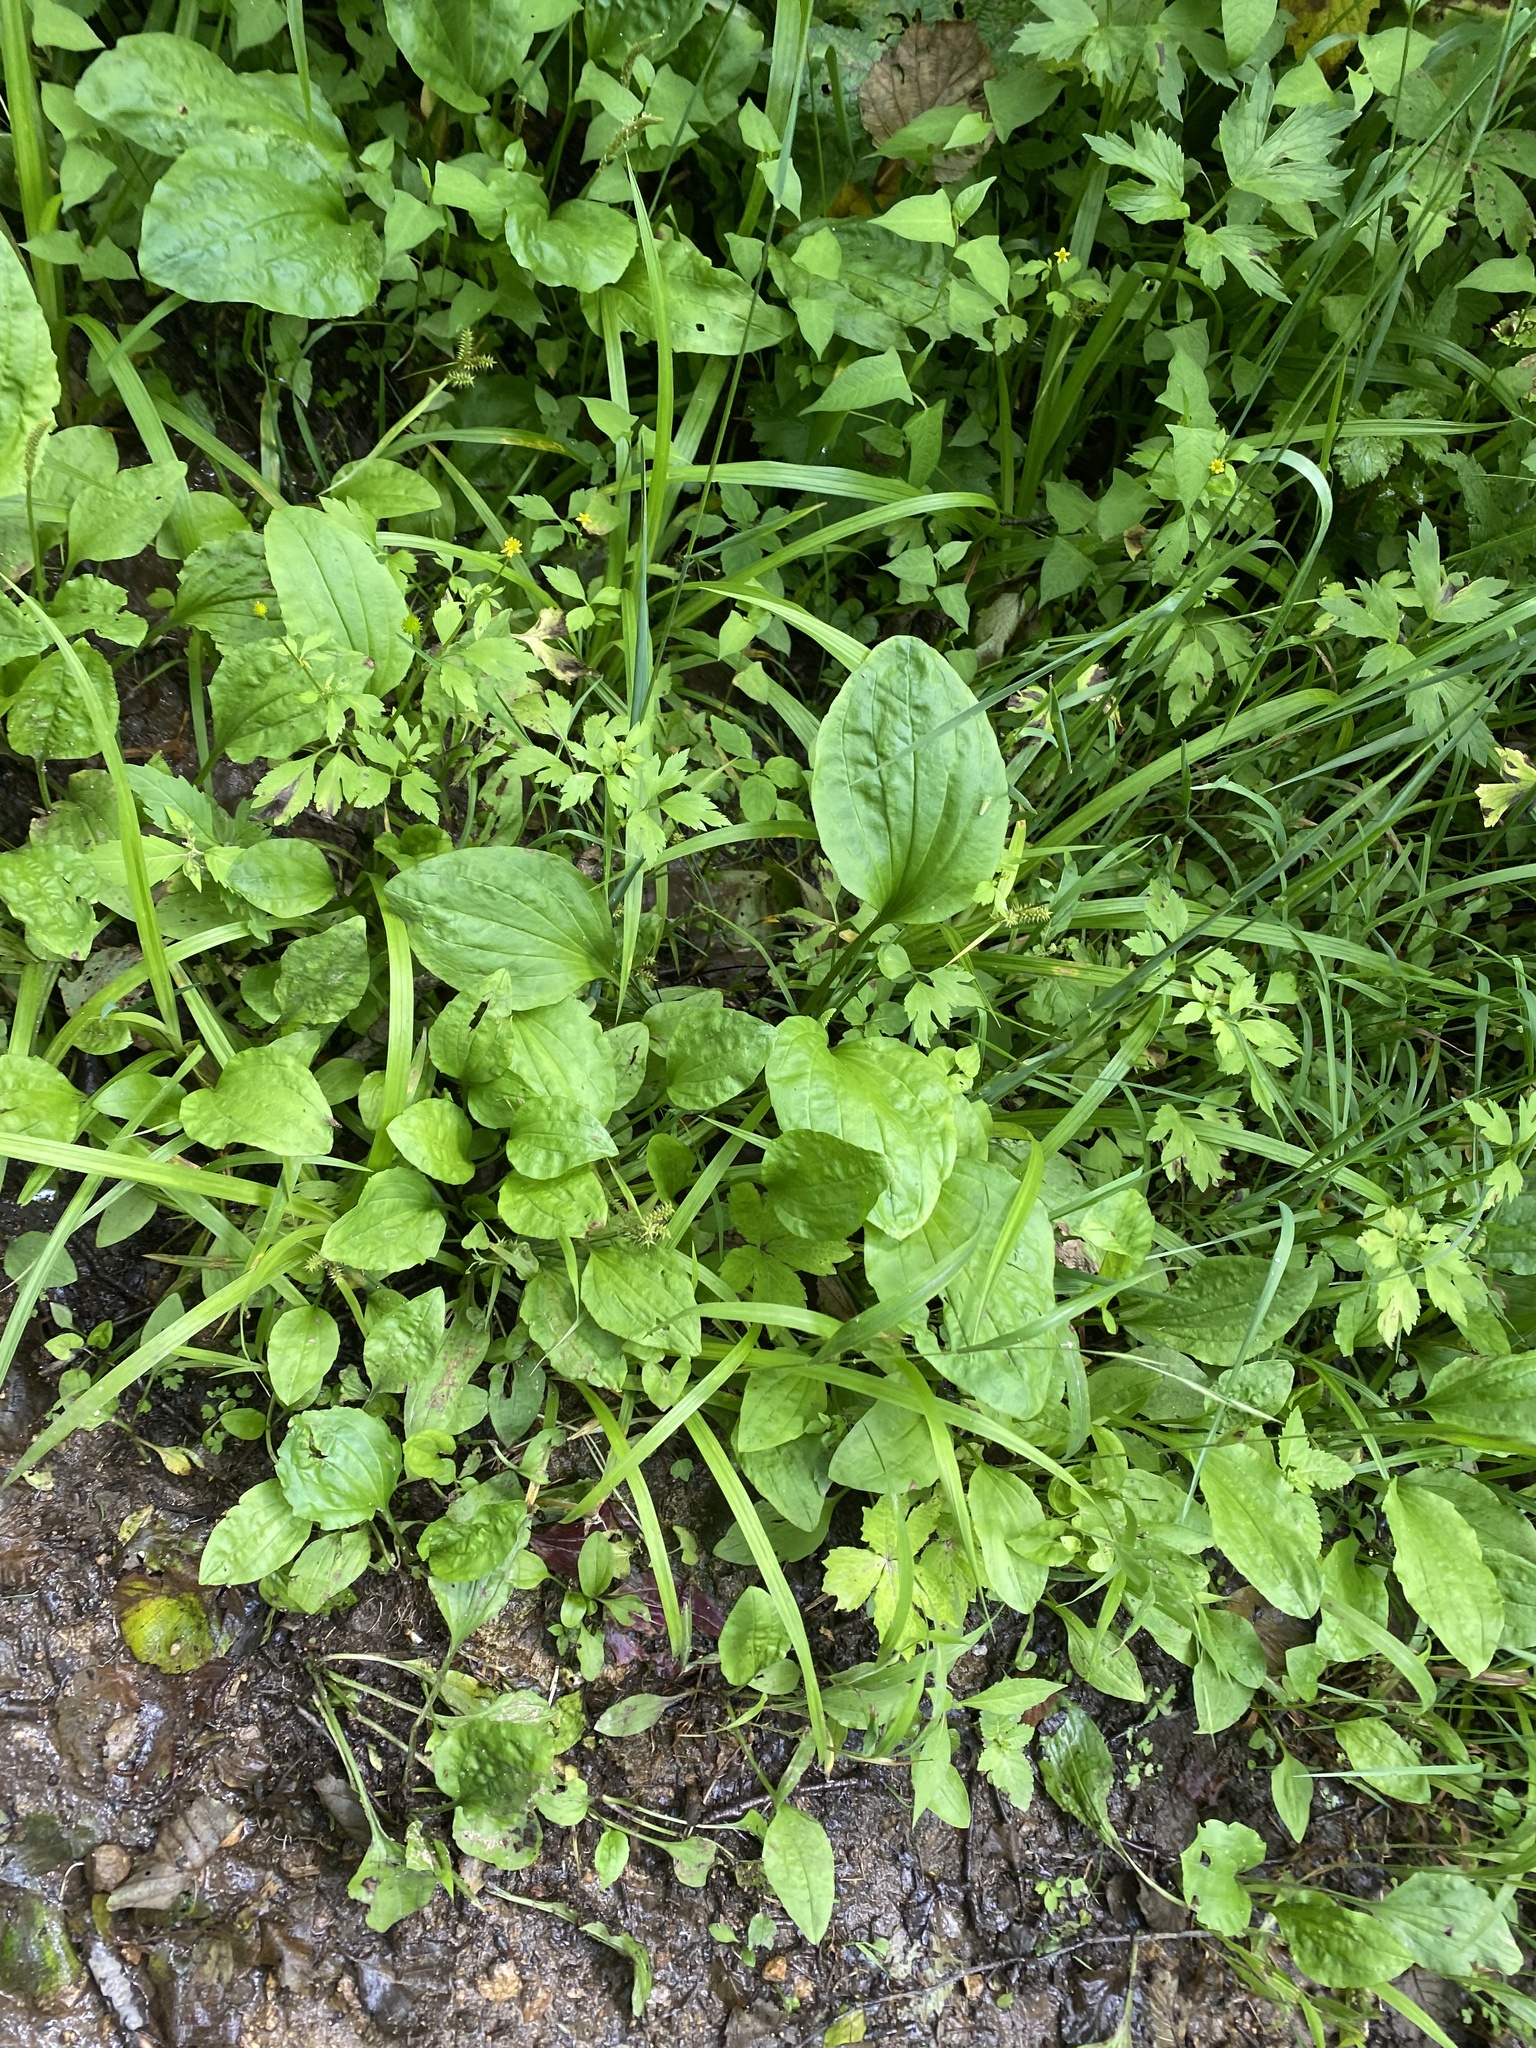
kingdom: Plantae
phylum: Tracheophyta
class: Magnoliopsida
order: Lamiales
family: Plantaginaceae
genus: Plantago
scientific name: Plantago major
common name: Common plantain
